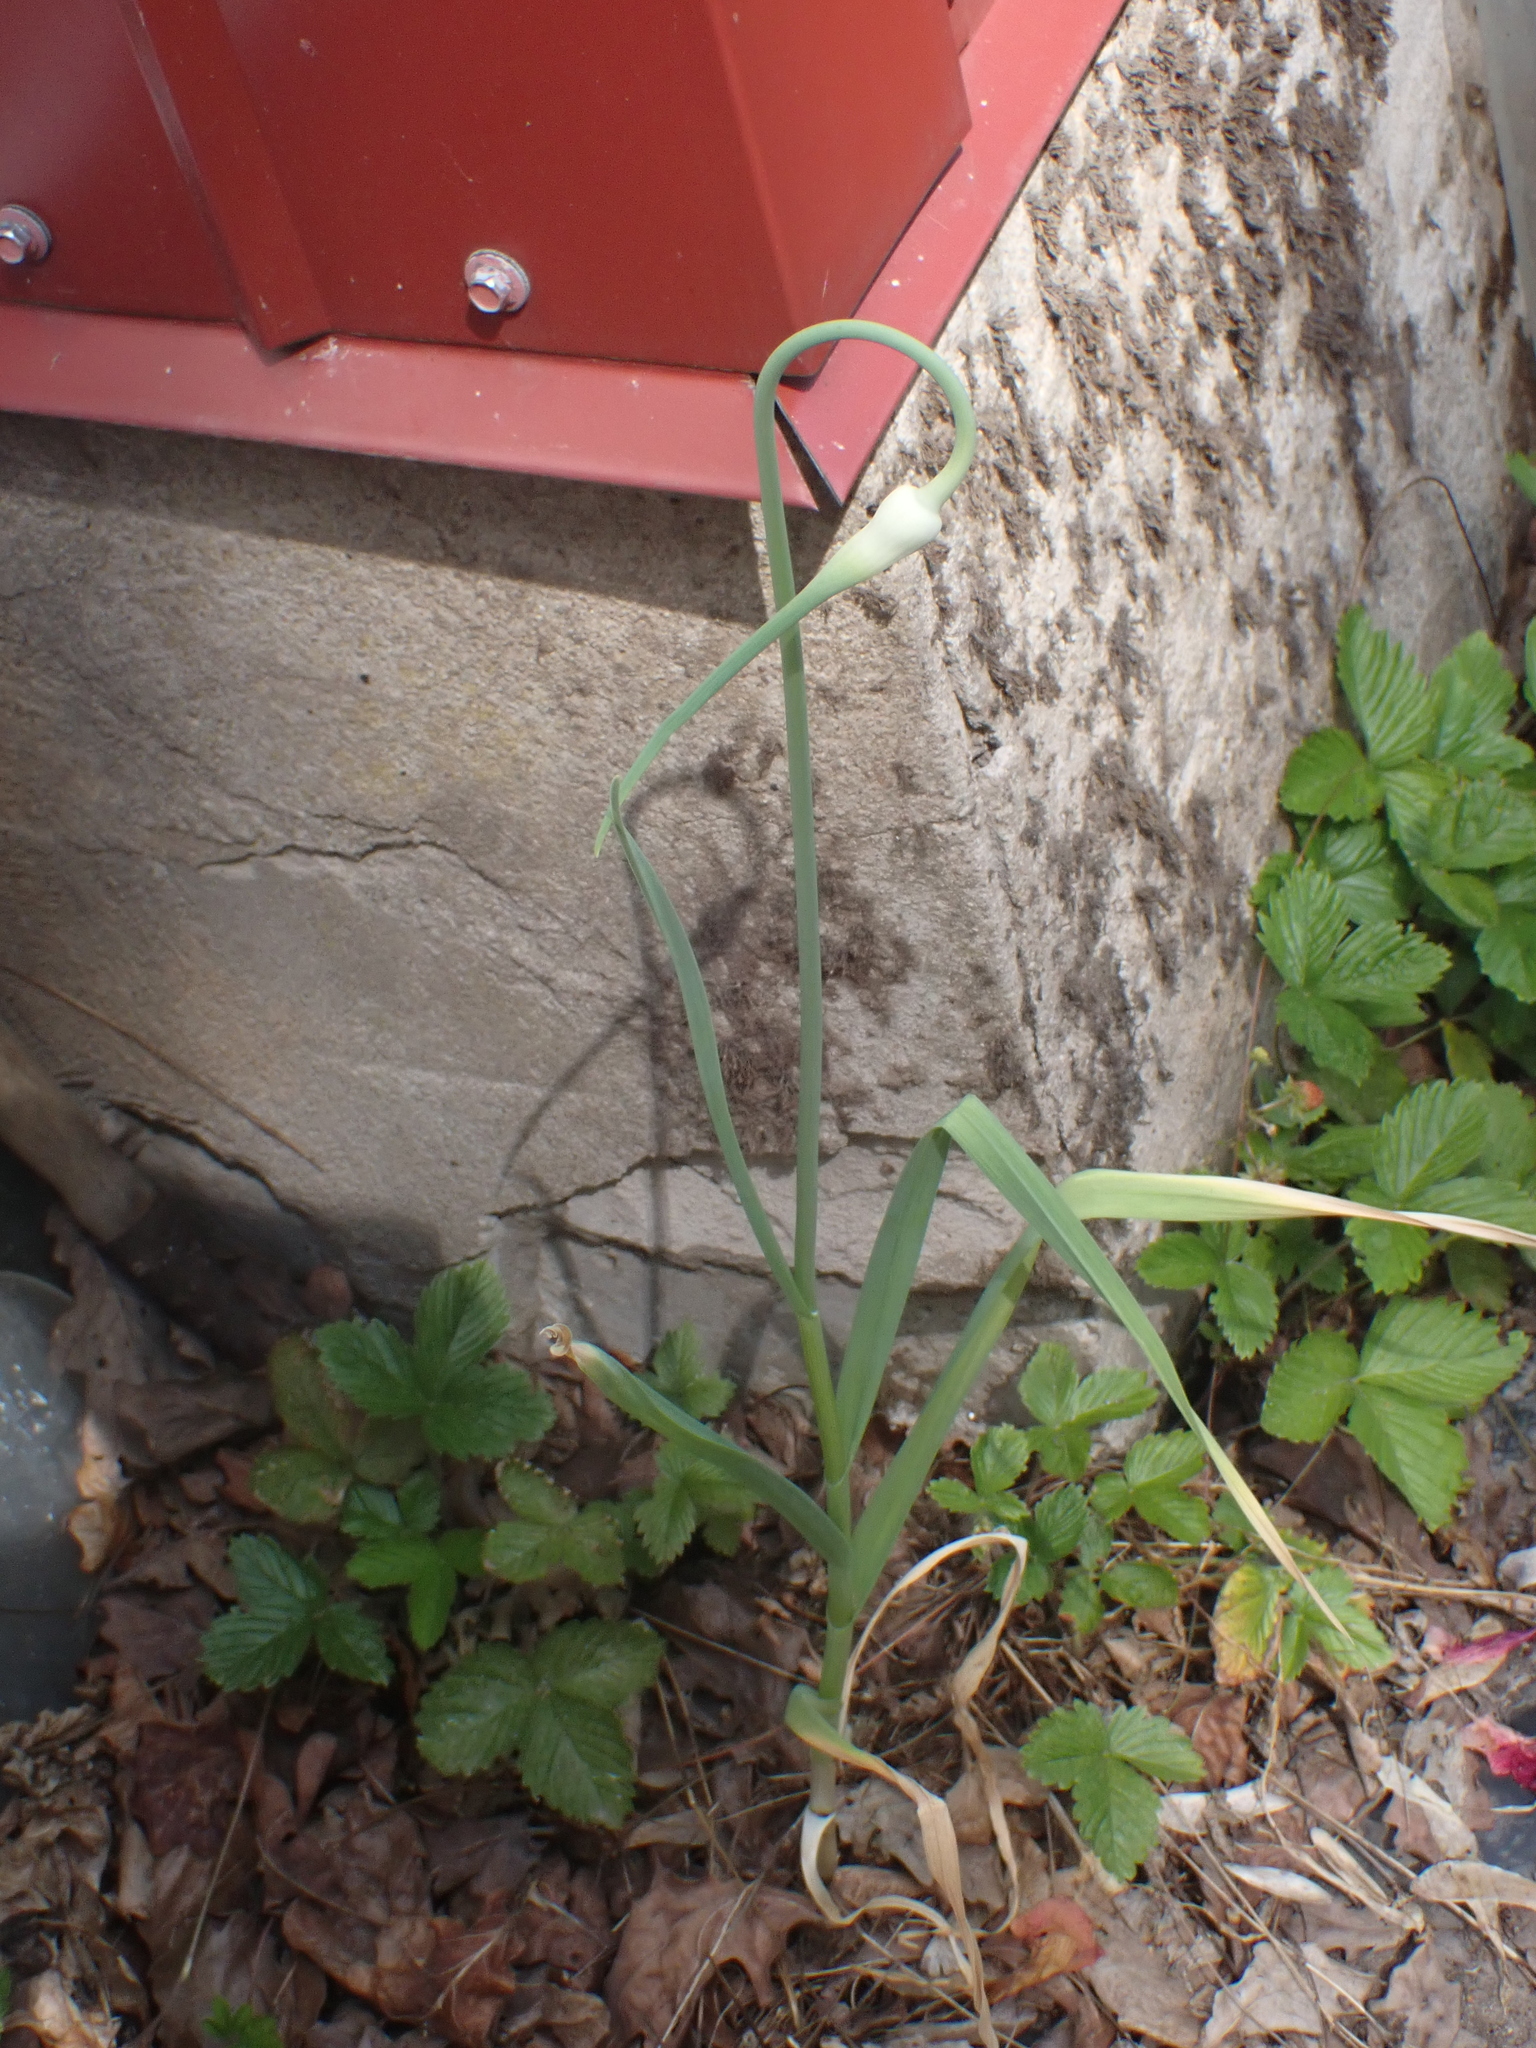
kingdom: Plantae
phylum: Tracheophyta
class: Liliopsida
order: Asparagales
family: Amaryllidaceae
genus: Allium
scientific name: Allium sativum
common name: Garlic
